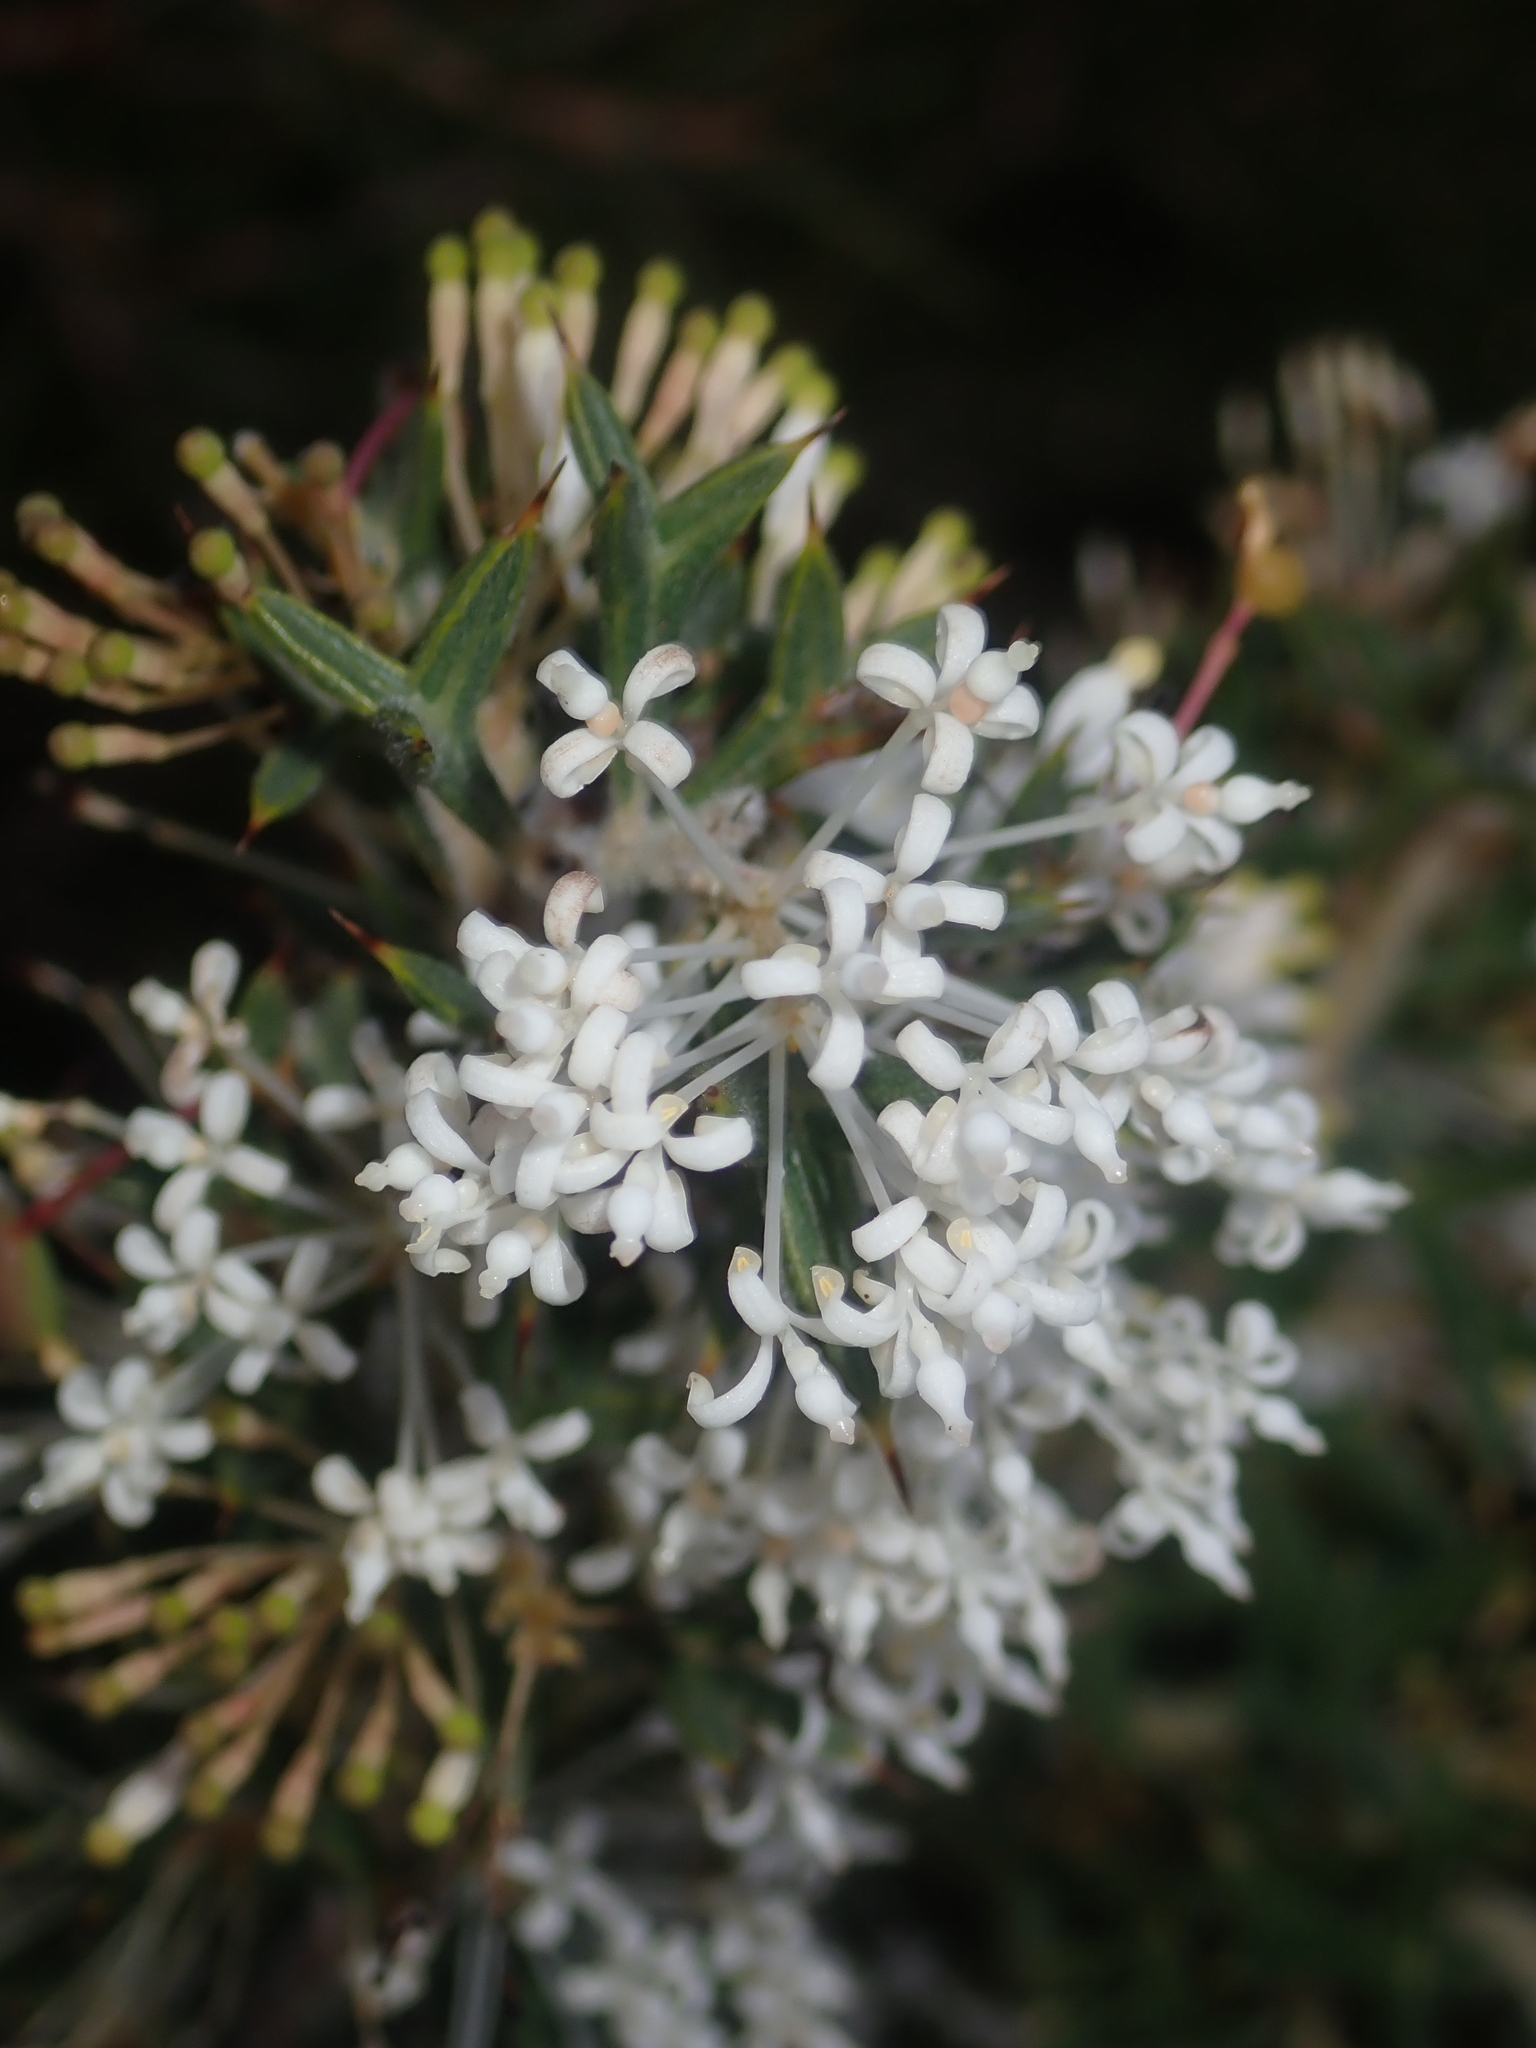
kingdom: Plantae
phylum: Tracheophyta
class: Magnoliopsida
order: Proteales
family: Proteaceae
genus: Grevillea
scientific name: Grevillea vestita
